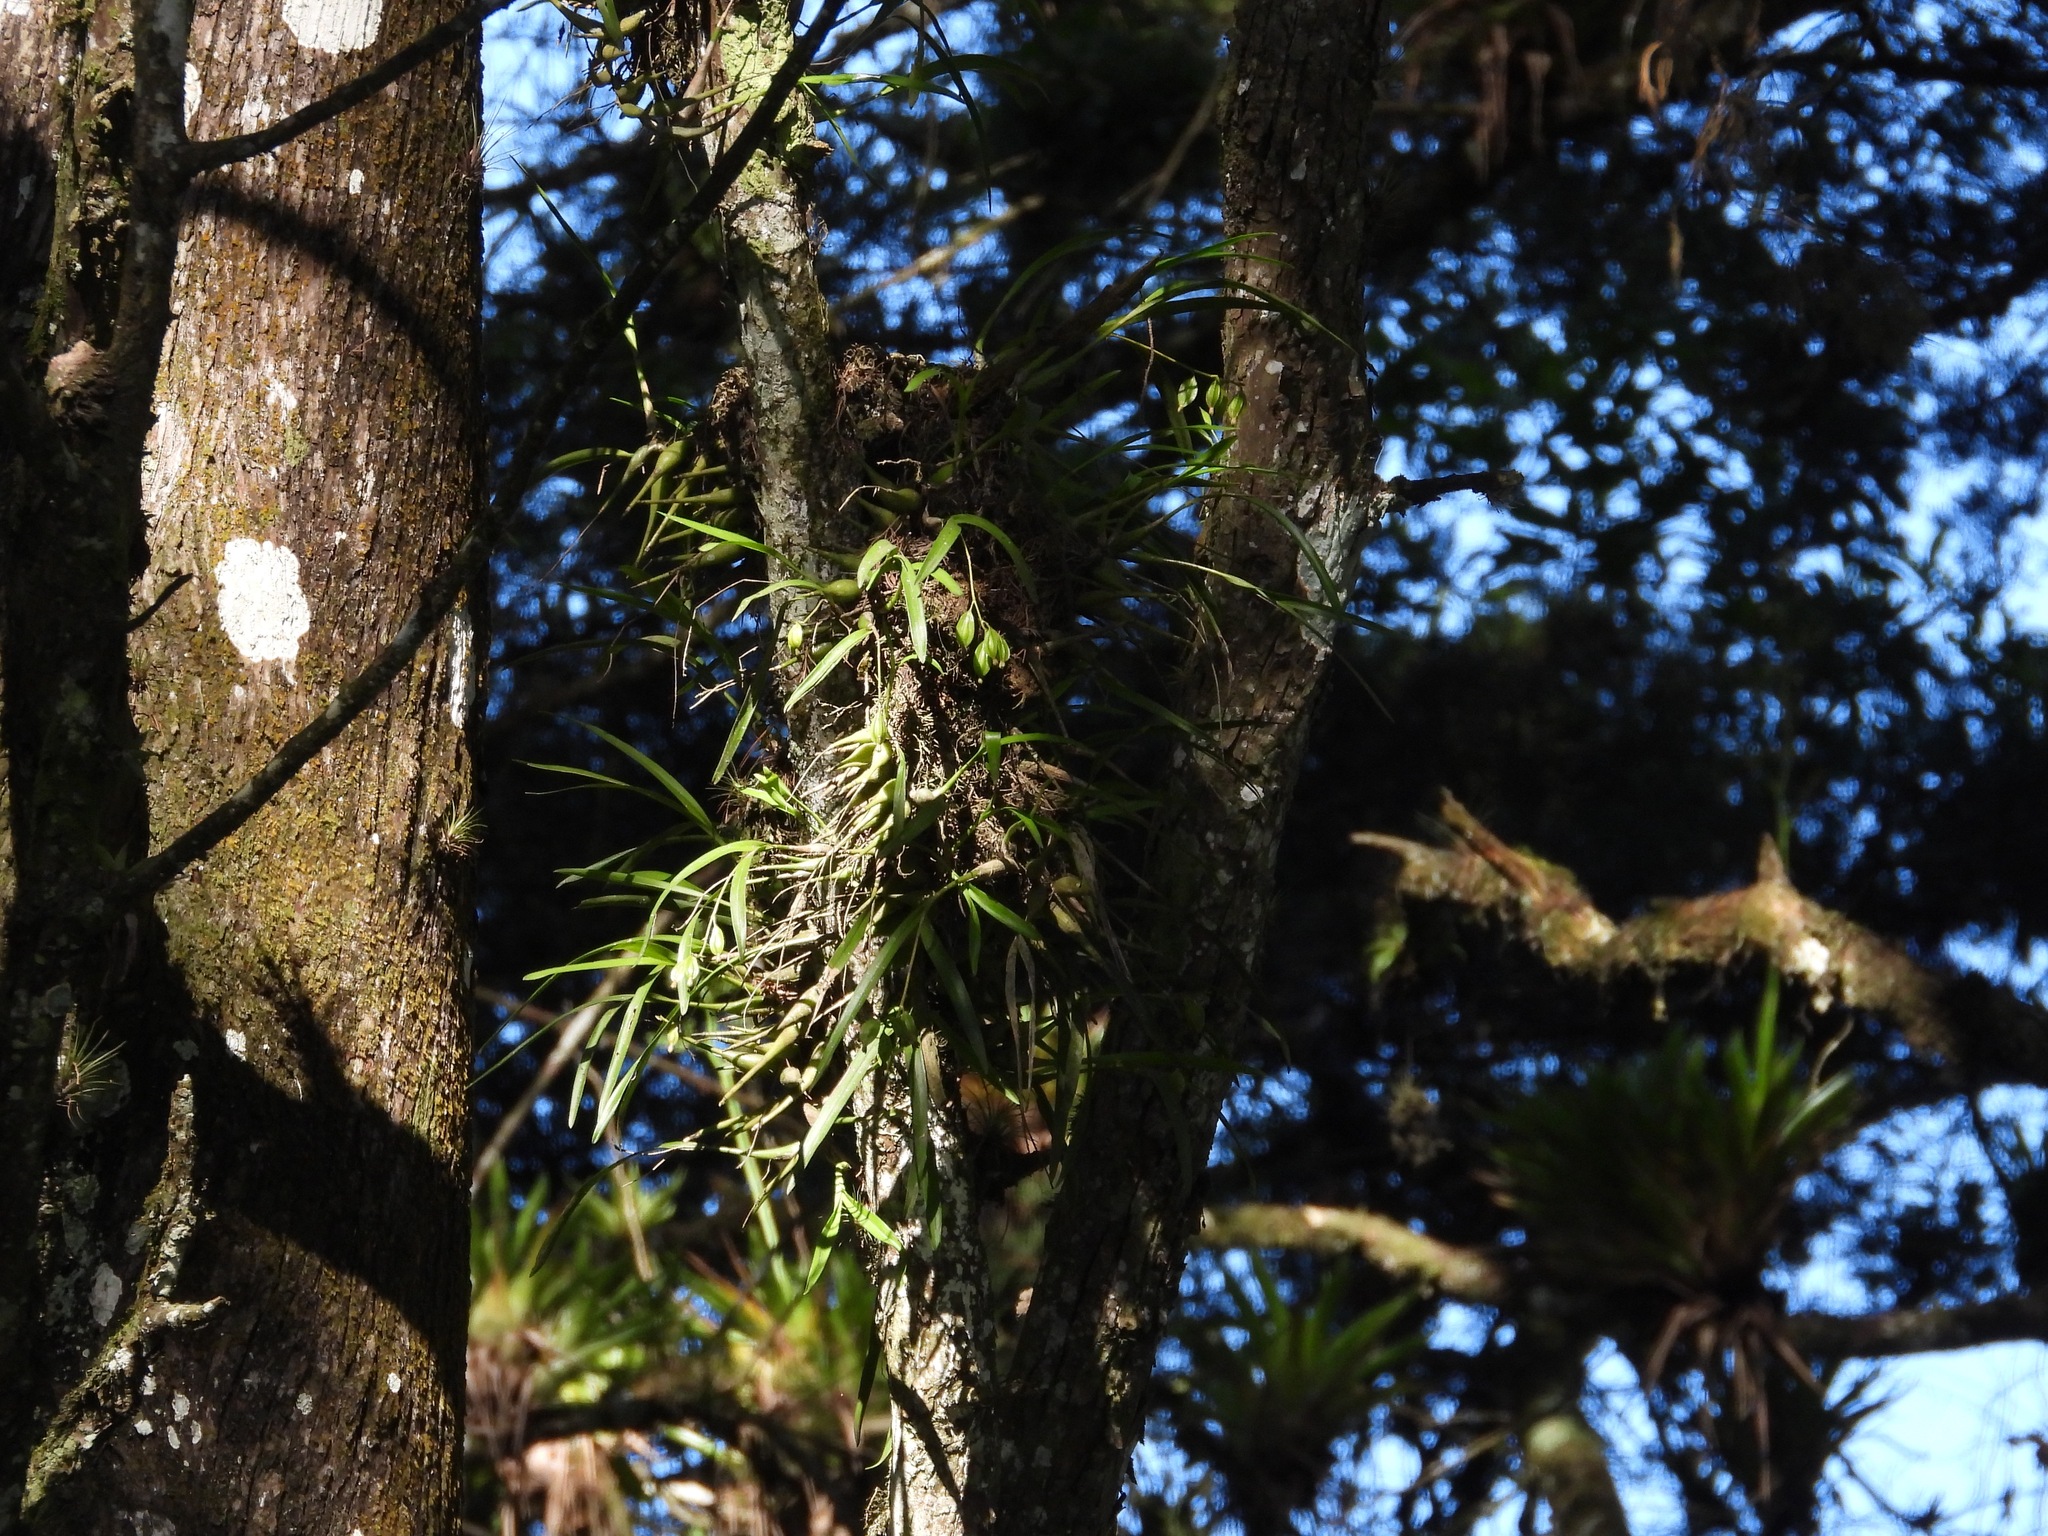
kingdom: Plantae
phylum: Tracheophyta
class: Liliopsida
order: Asparagales
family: Orchidaceae
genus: Prosthechea
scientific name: Prosthechea ochracea
